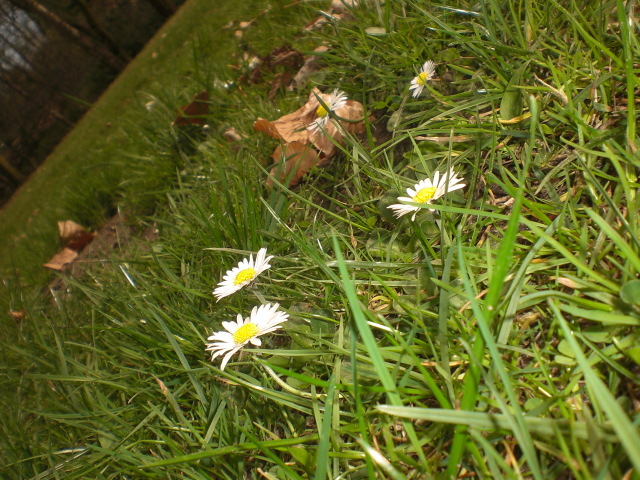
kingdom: Plantae
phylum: Tracheophyta
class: Magnoliopsida
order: Asterales
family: Asteraceae
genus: Bellis
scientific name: Bellis perennis
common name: Lawndaisy
